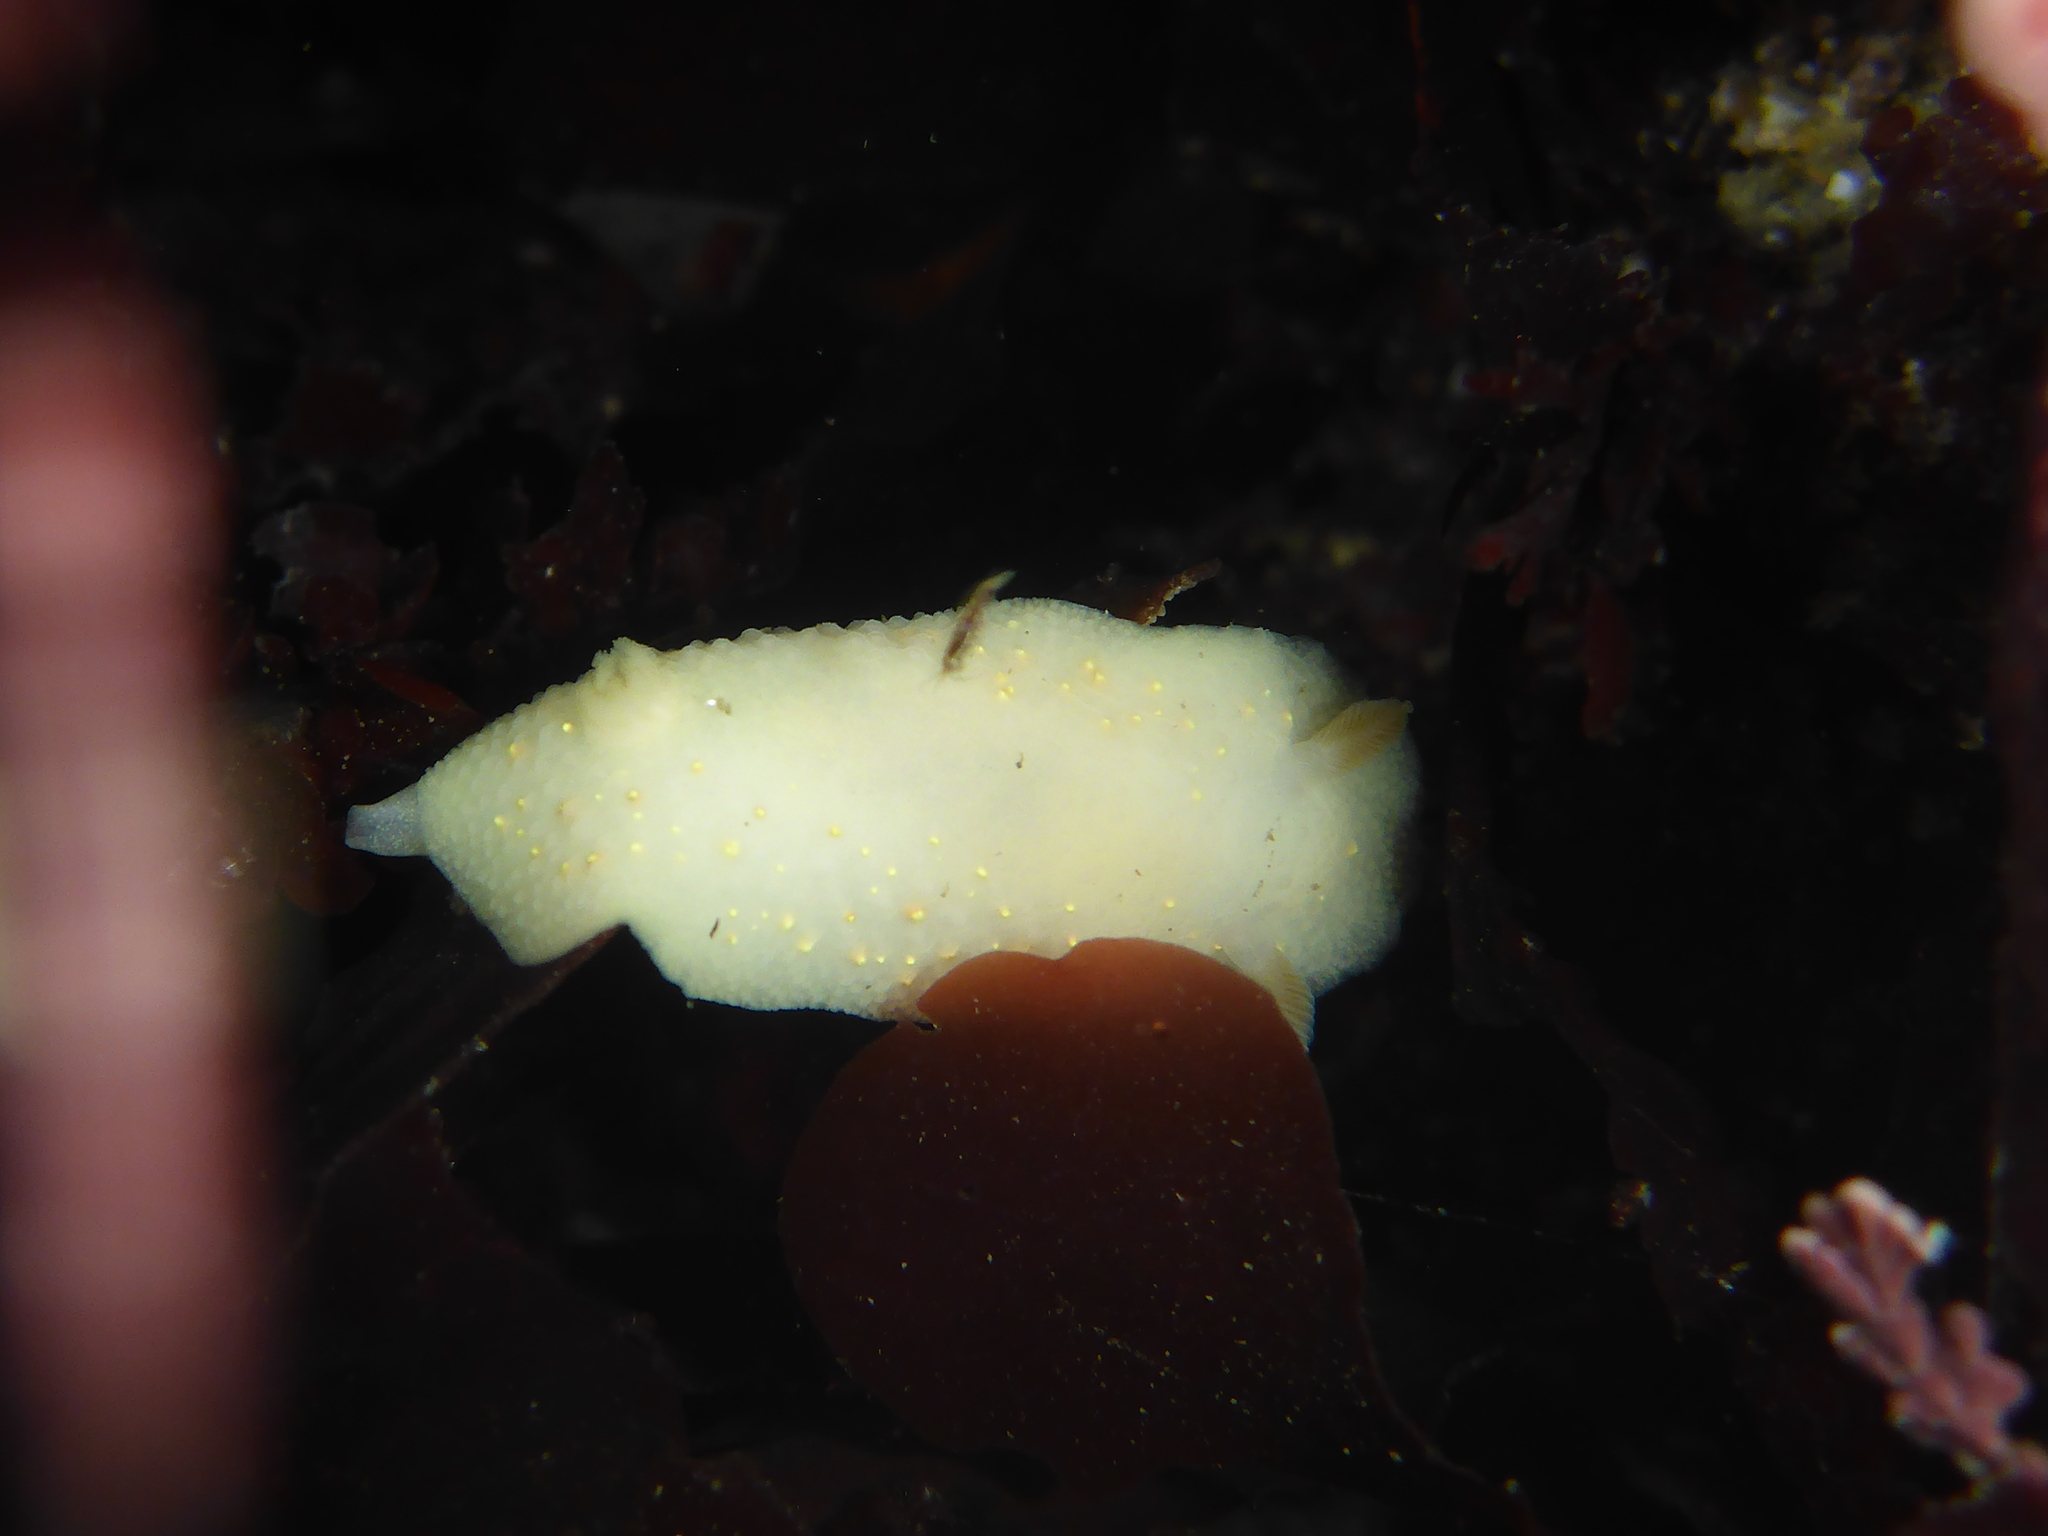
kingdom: Animalia
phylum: Mollusca
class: Gastropoda
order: Nudibranchia
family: Cadlinidae
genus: Cadlina
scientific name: Cadlina modesta
